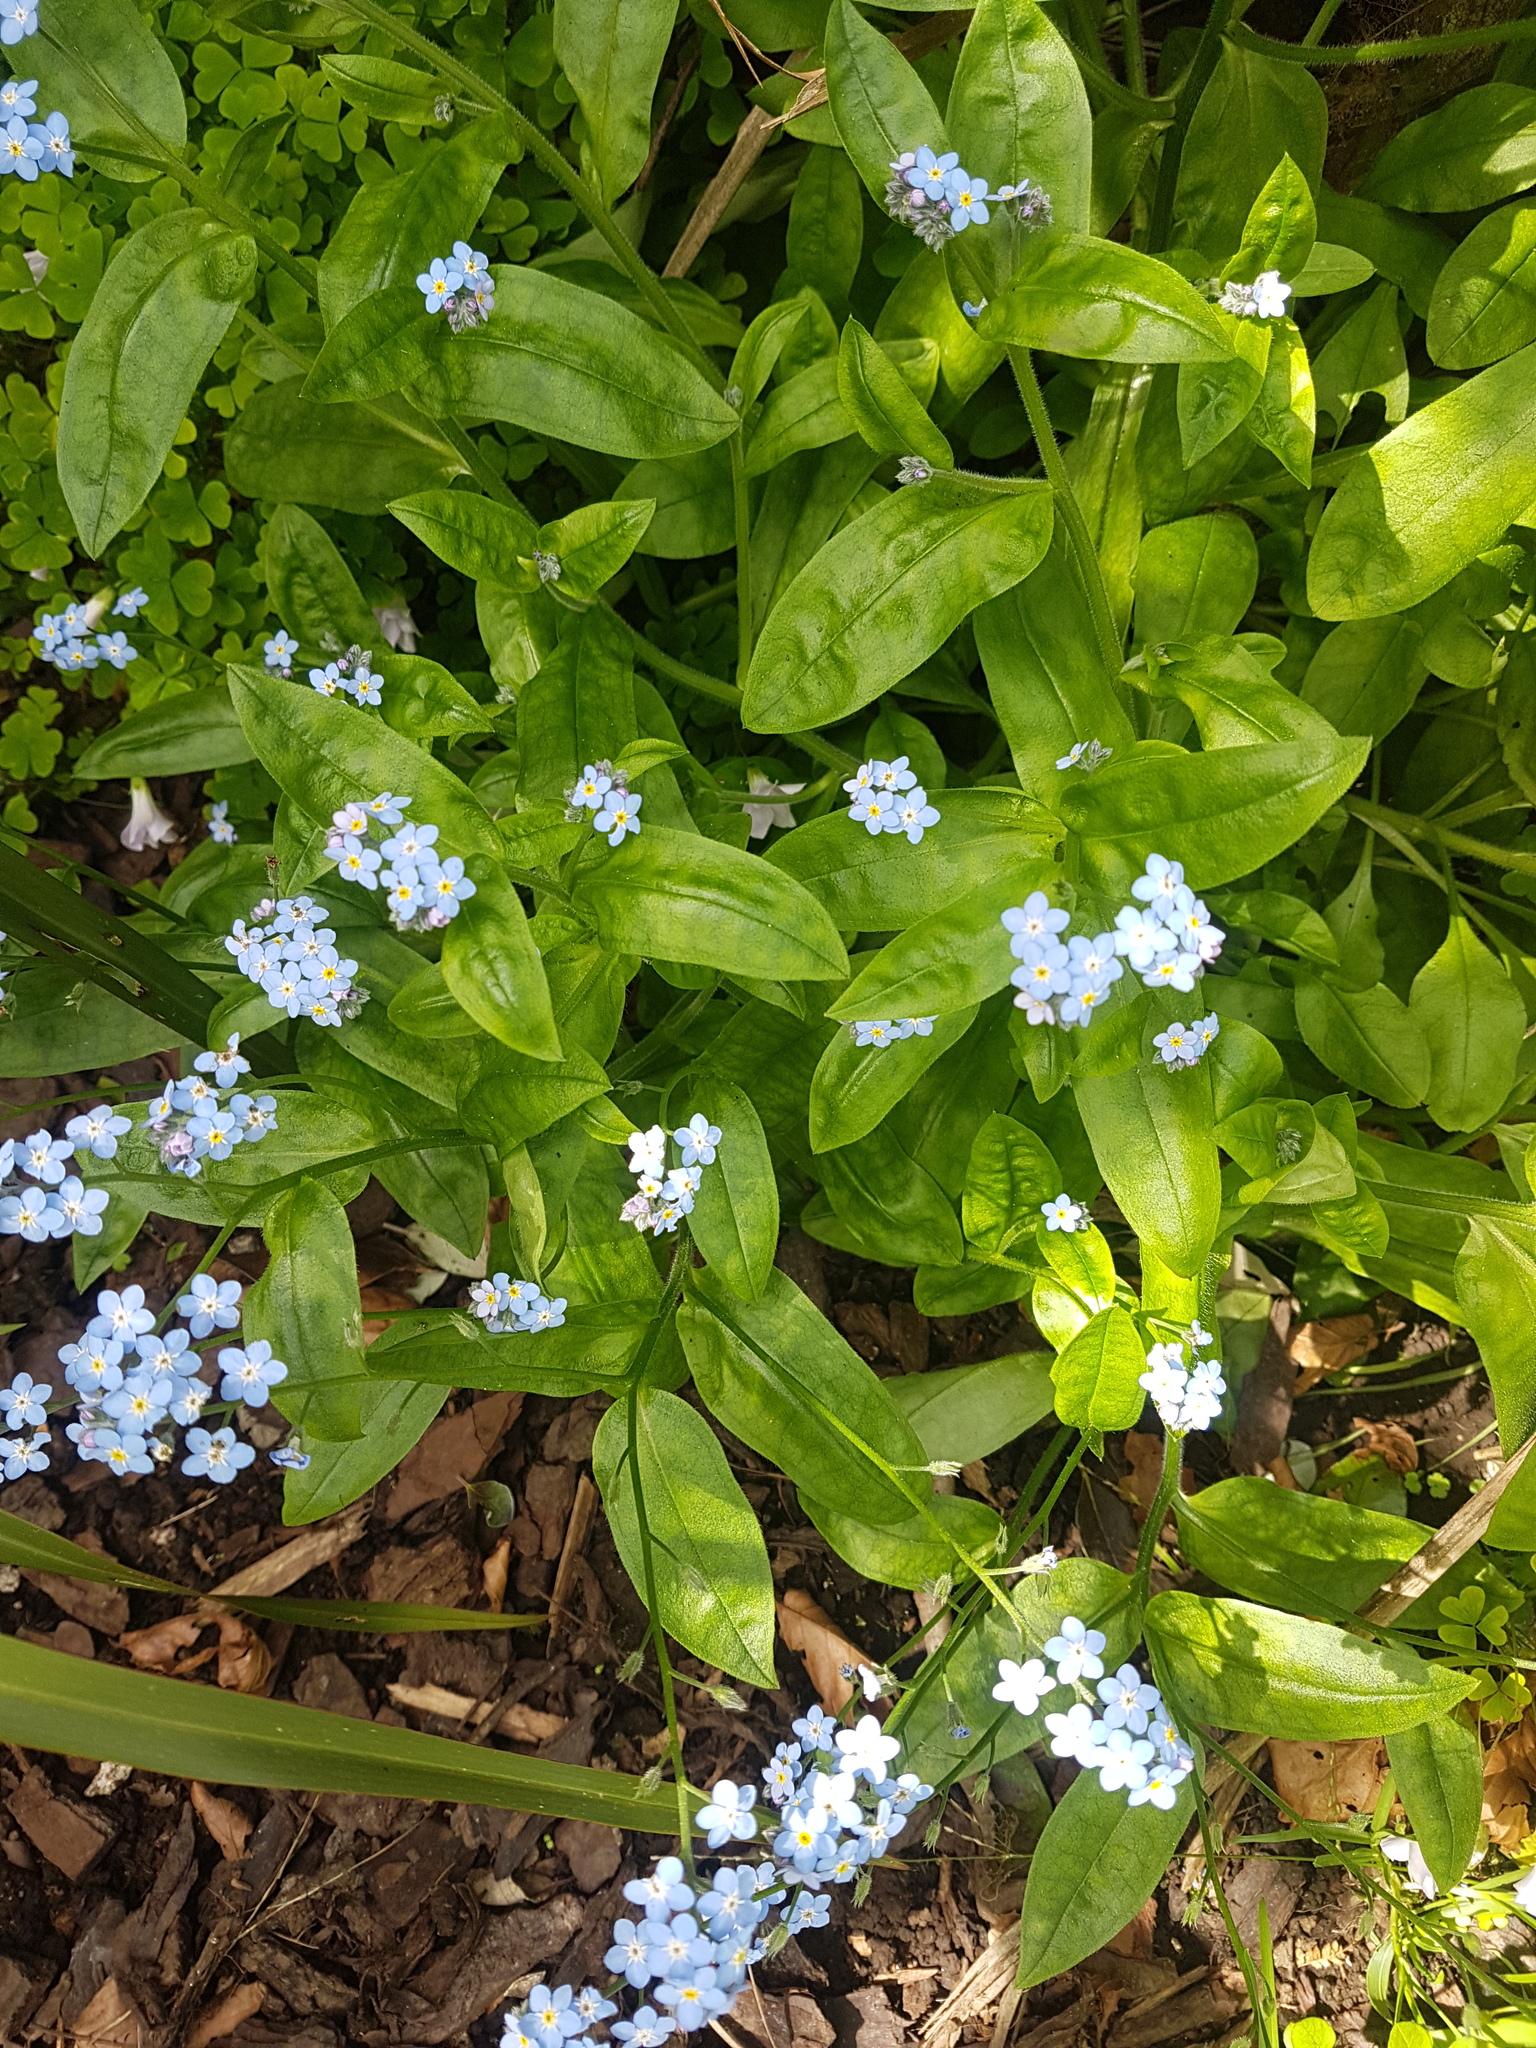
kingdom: Plantae
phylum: Tracheophyta
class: Magnoliopsida
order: Boraginales
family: Boraginaceae
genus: Myosotis
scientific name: Myosotis sylvatica
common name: Wood forget-me-not
